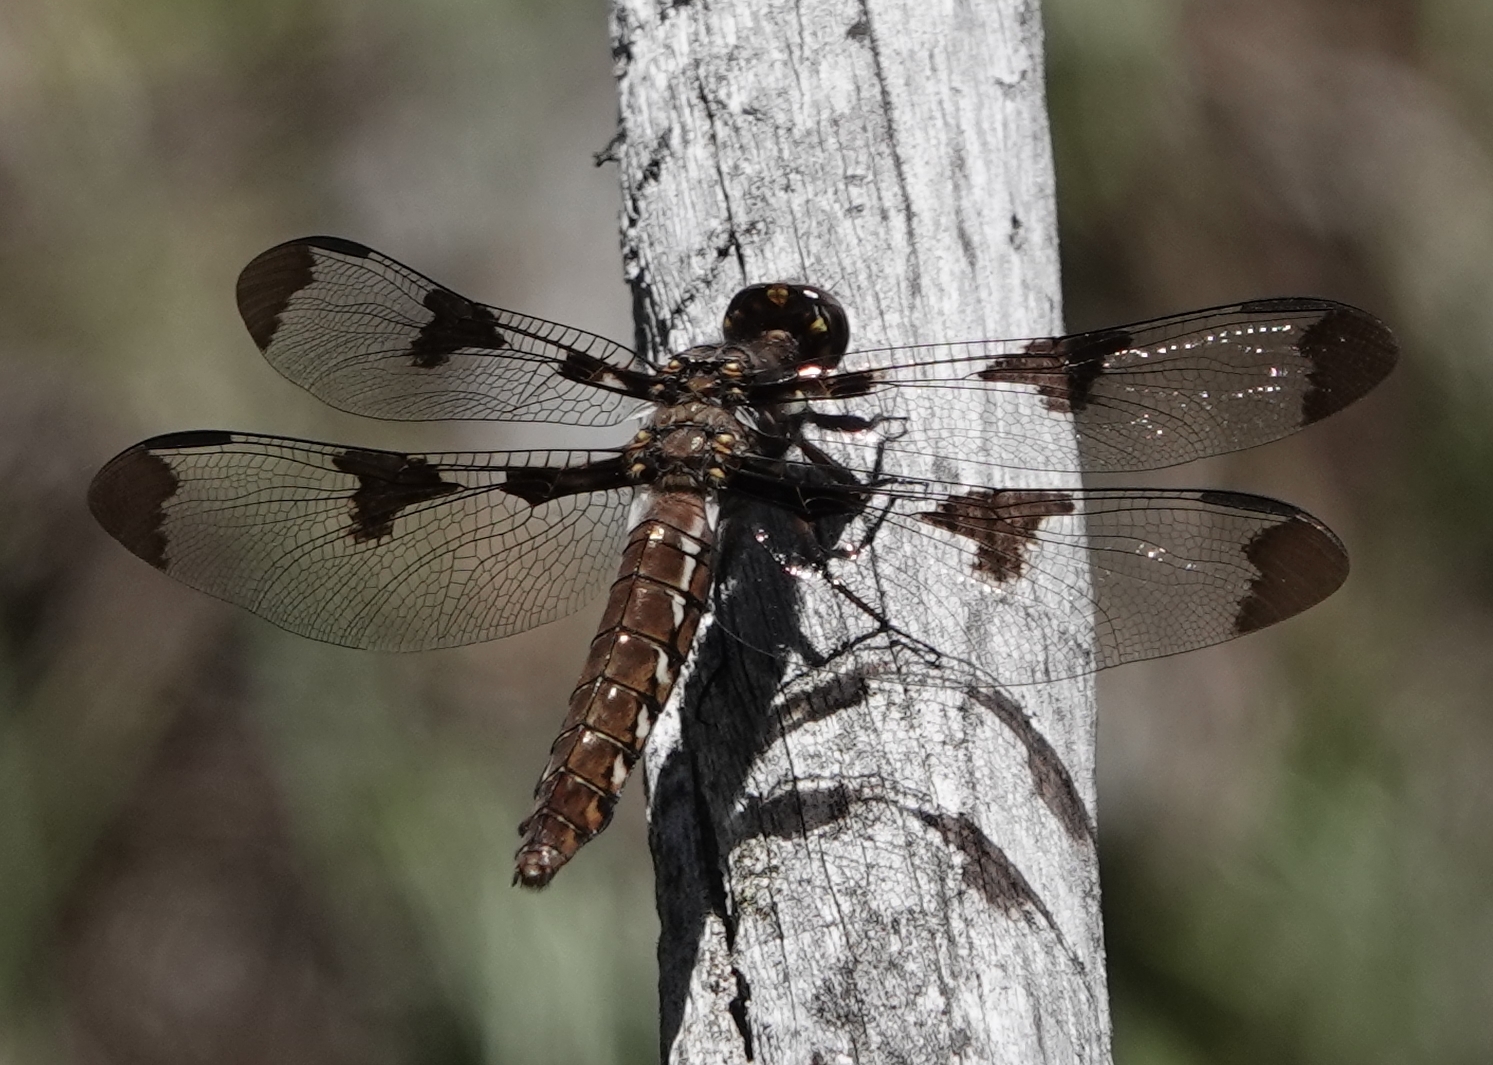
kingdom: Animalia
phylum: Arthropoda
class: Insecta
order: Odonata
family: Libellulidae
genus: Plathemis
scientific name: Plathemis lydia
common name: Common whitetail
